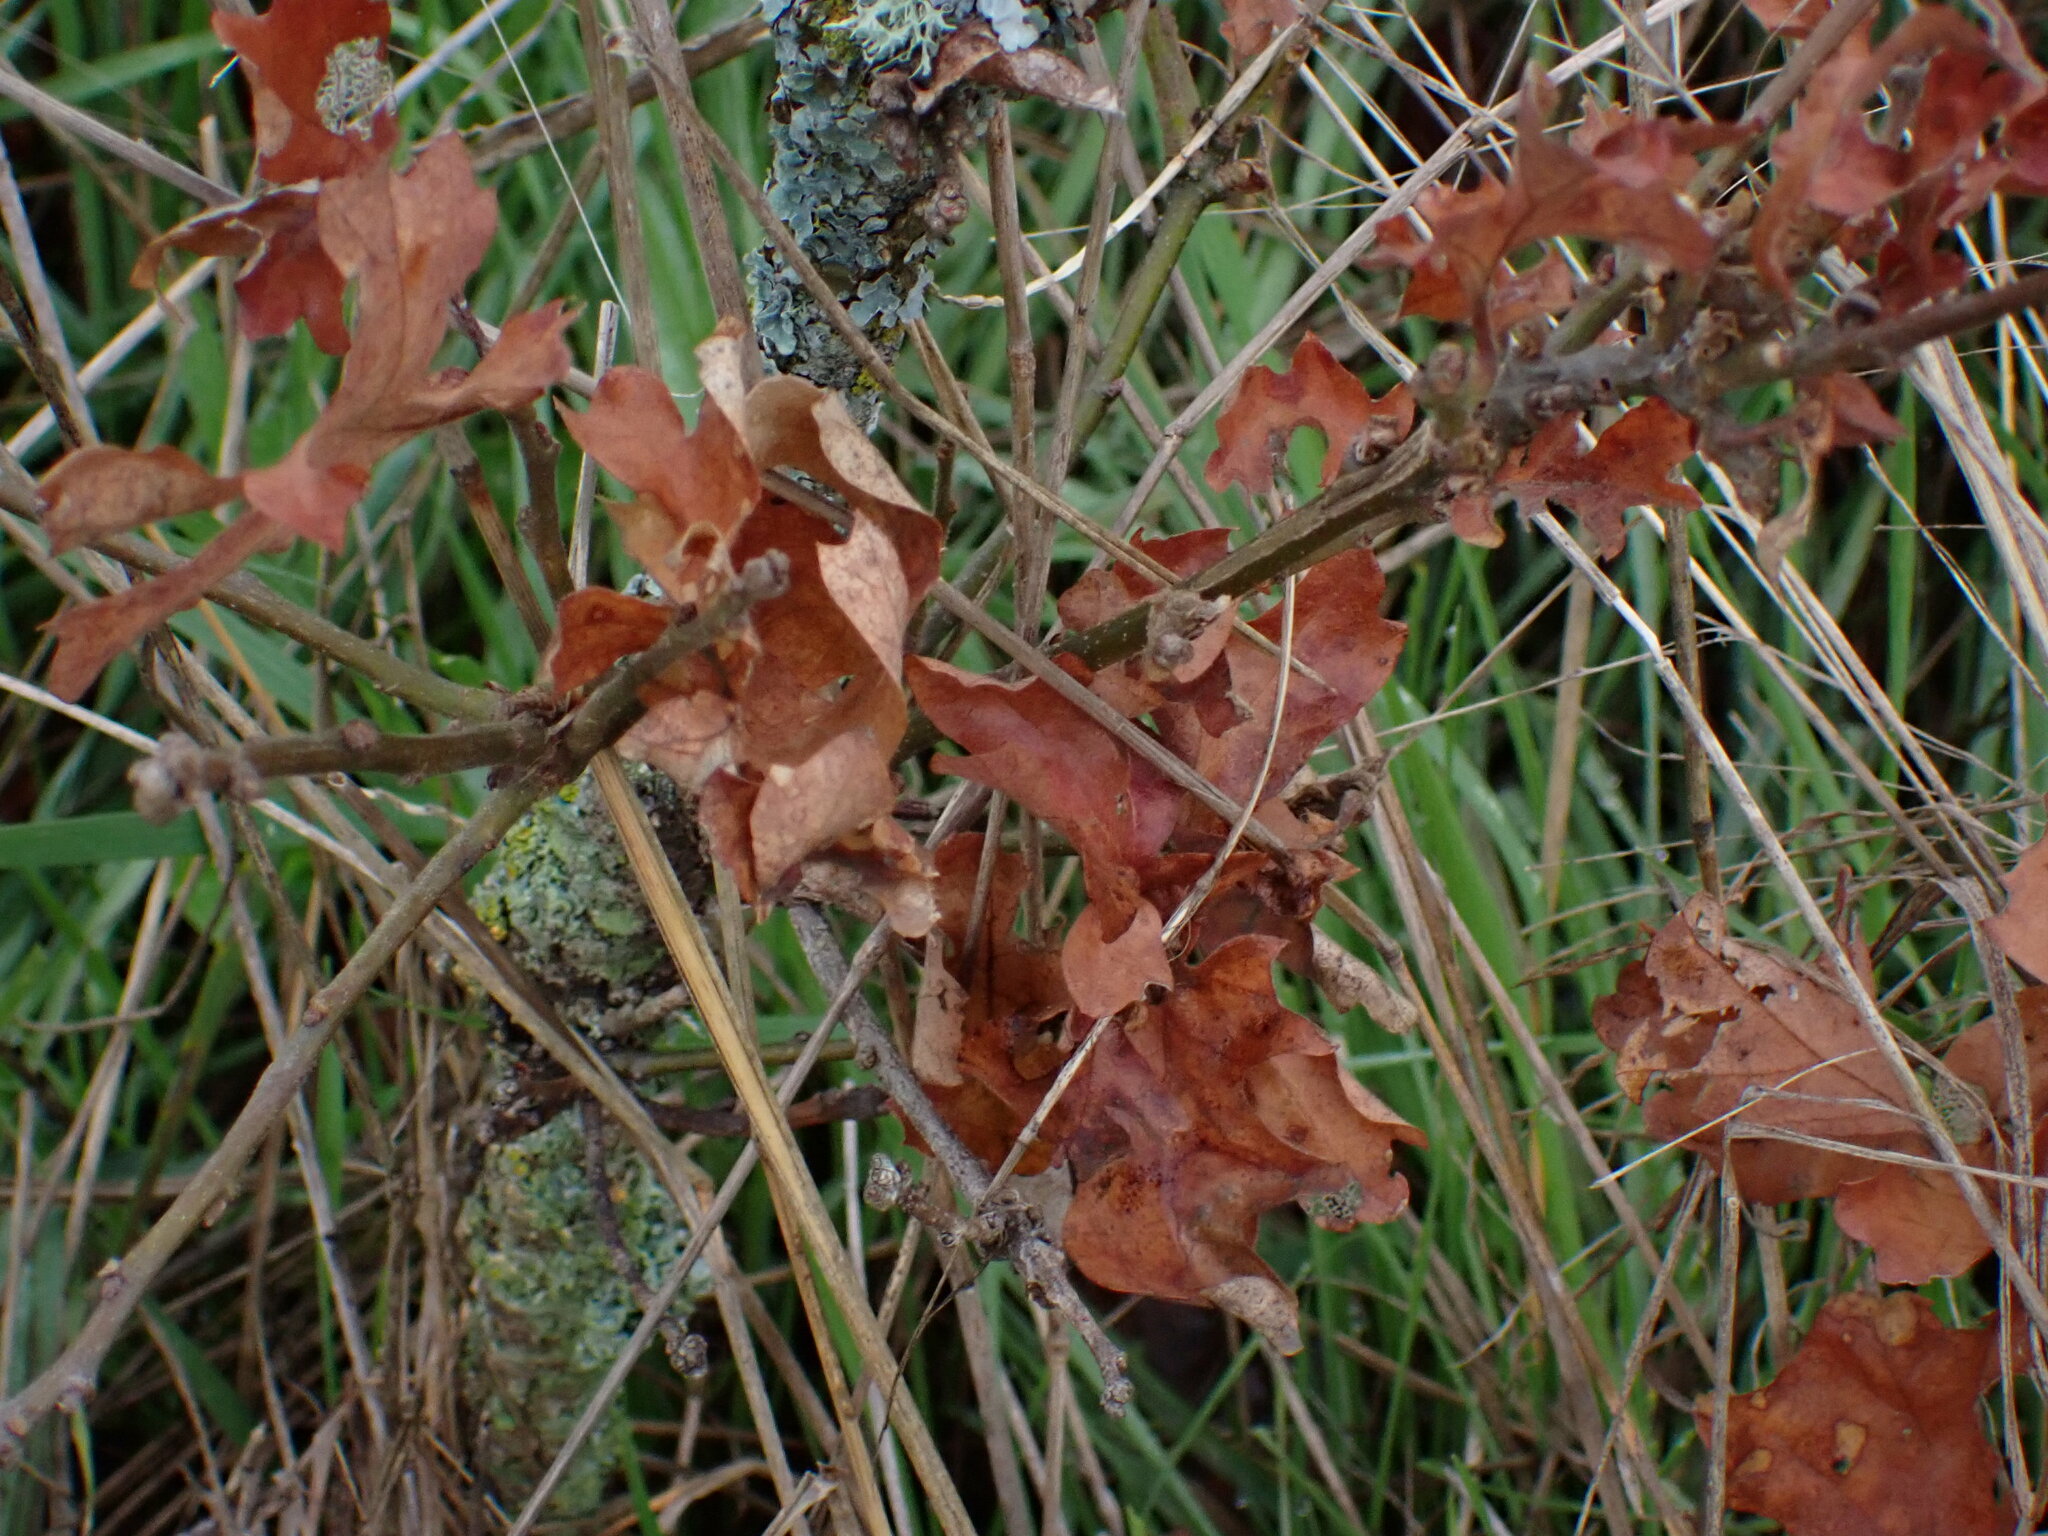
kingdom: Plantae
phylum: Tracheophyta
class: Magnoliopsida
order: Fagales
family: Fagaceae
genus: Quercus
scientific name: Quercus garryana
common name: Garry oak
